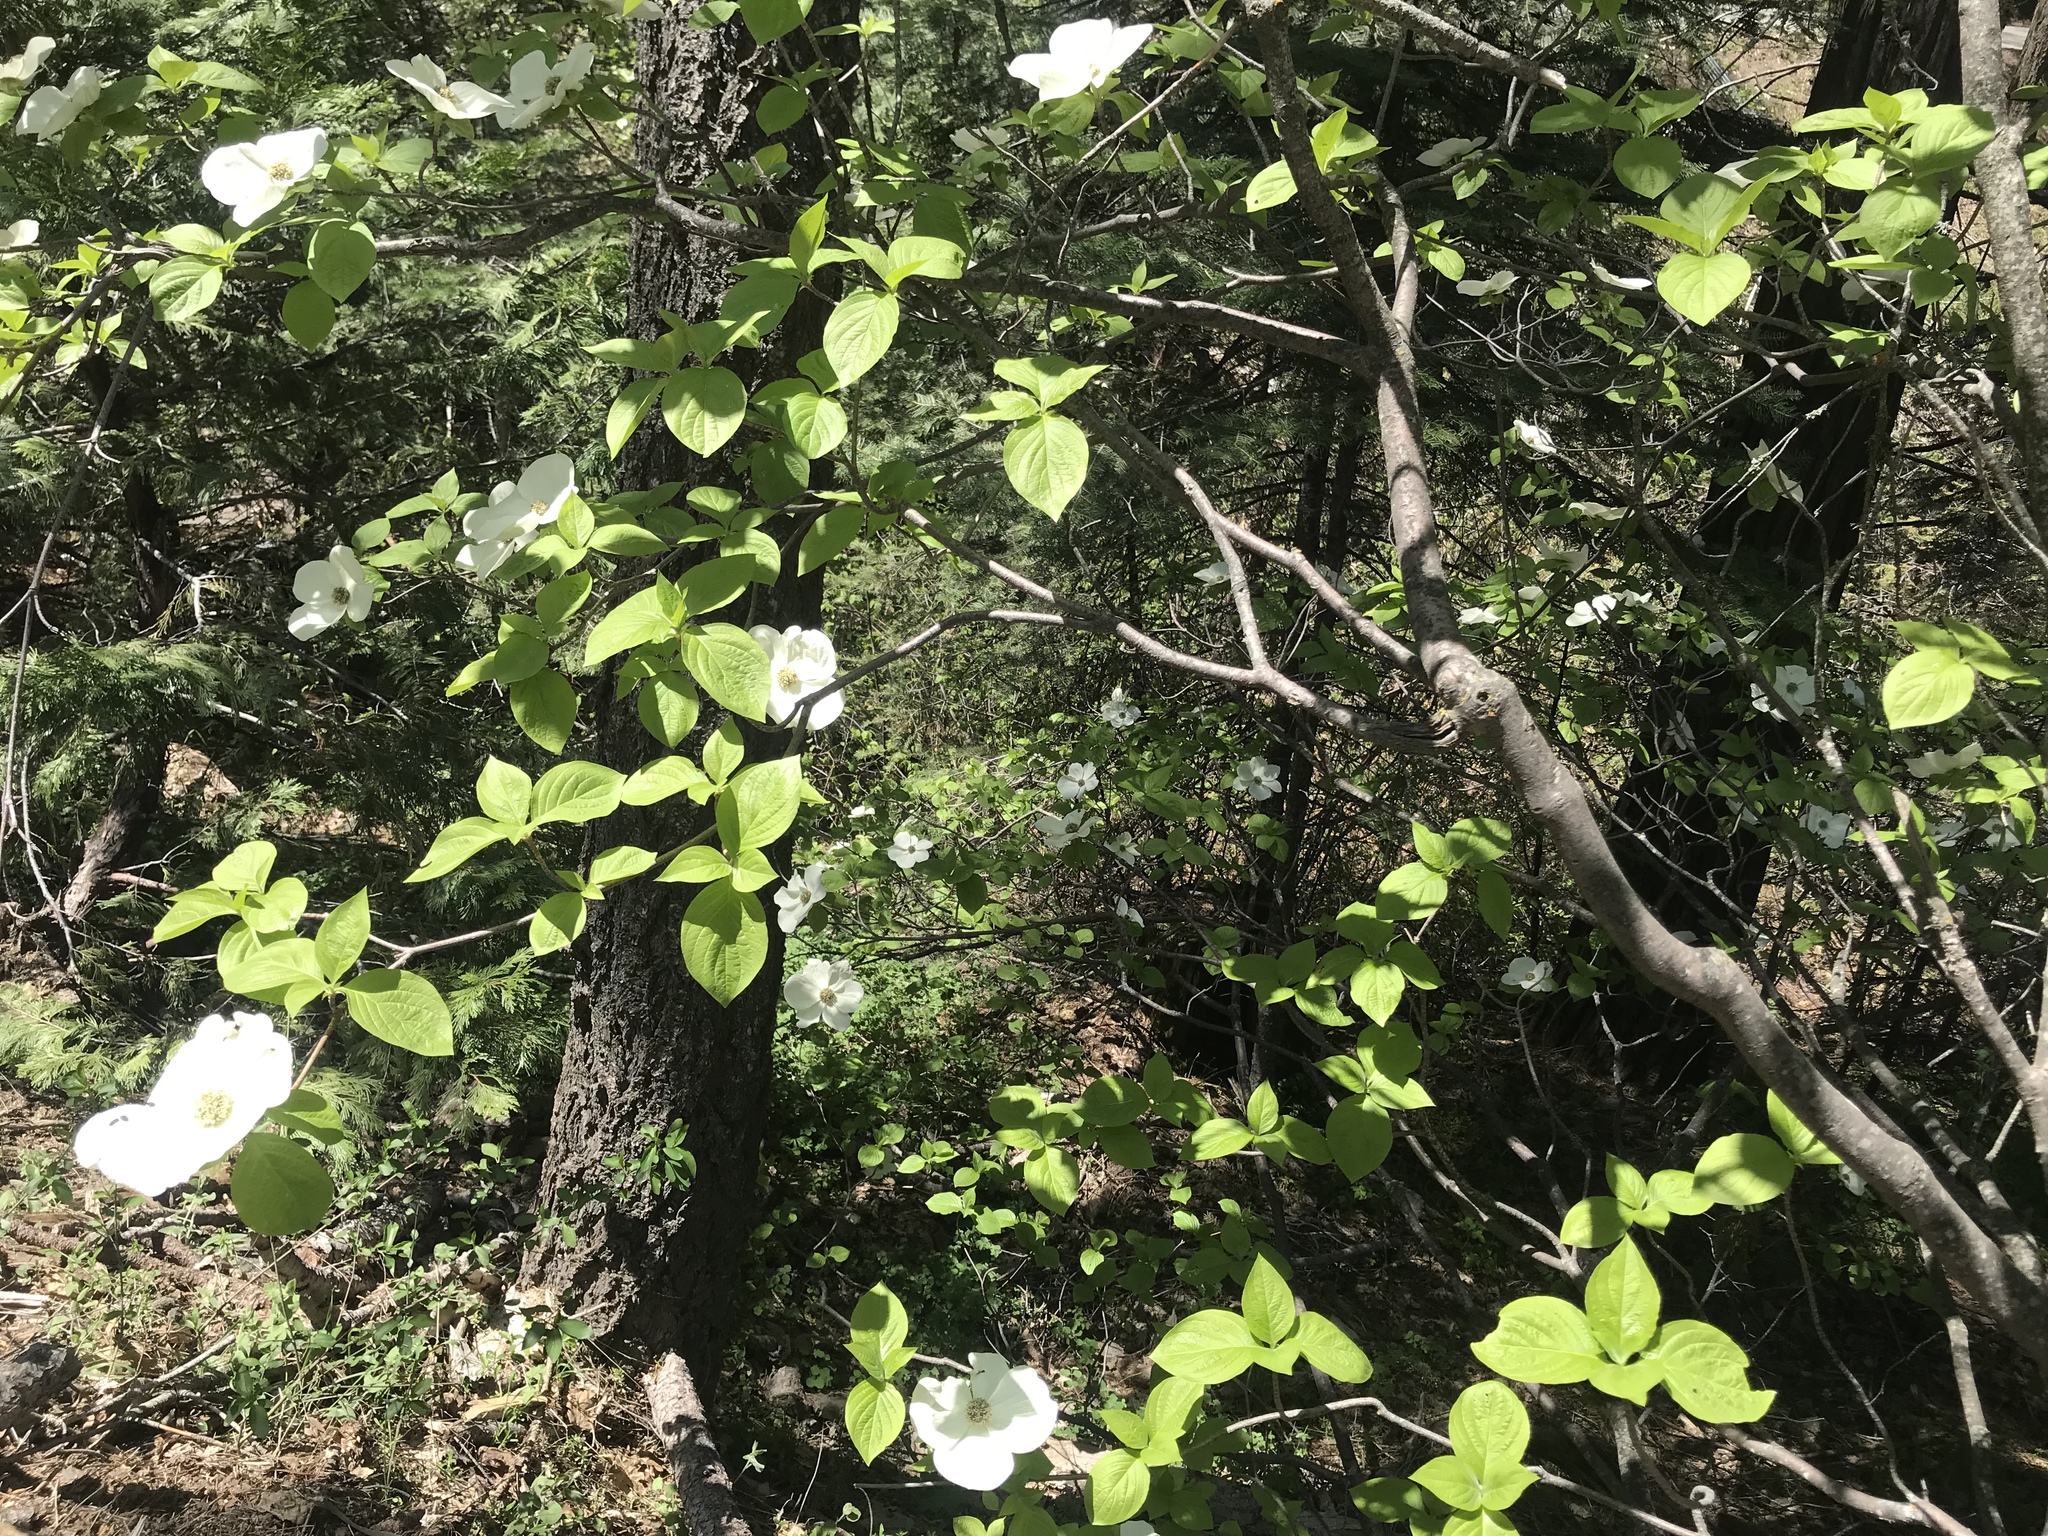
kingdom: Plantae
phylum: Tracheophyta
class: Magnoliopsida
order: Cornales
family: Cornaceae
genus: Cornus
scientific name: Cornus nuttallii
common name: Pacific dogwood
